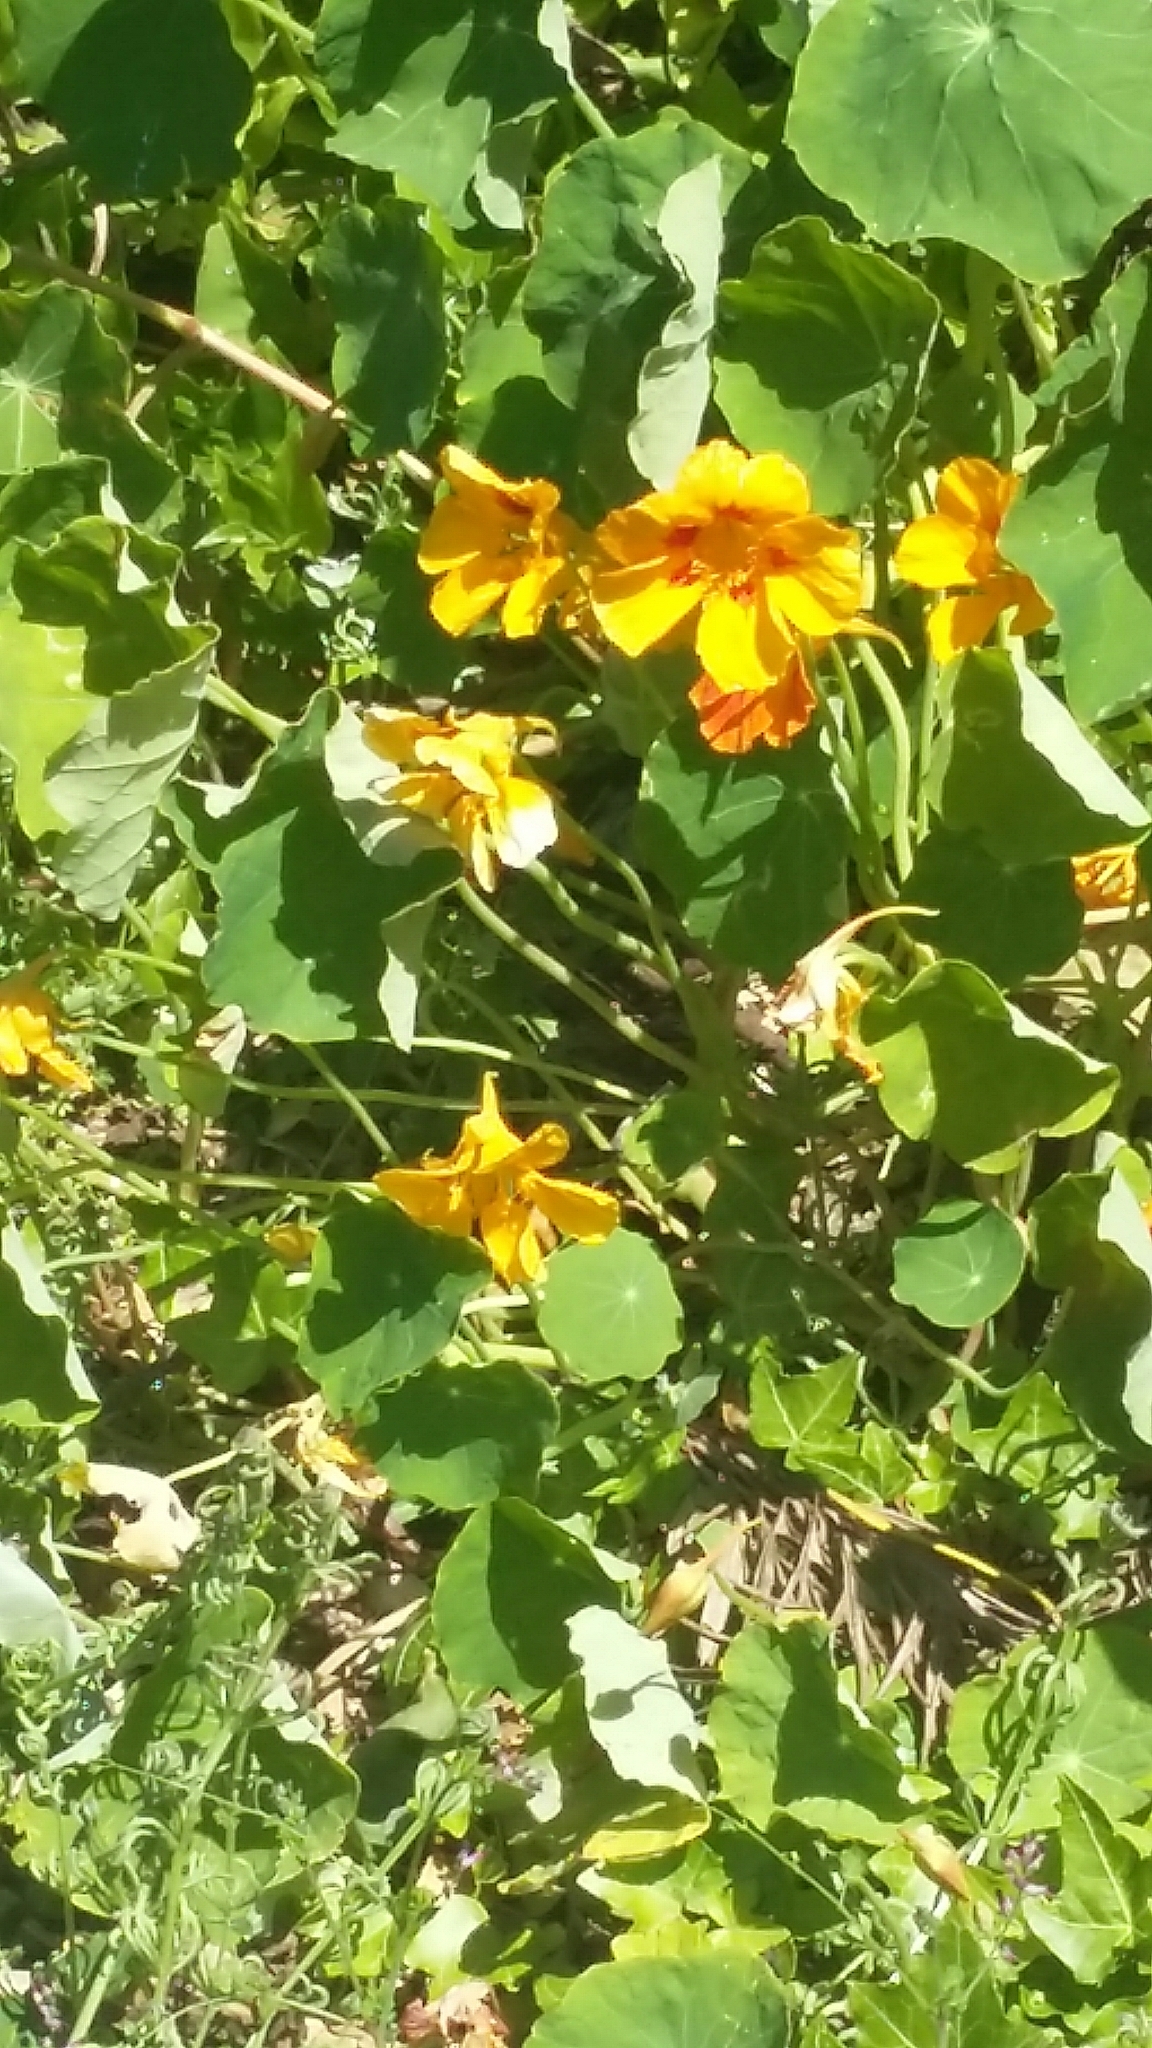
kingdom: Plantae
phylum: Tracheophyta
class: Magnoliopsida
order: Brassicales
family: Tropaeolaceae
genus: Tropaeolum
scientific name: Tropaeolum majus
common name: Nasturtium
